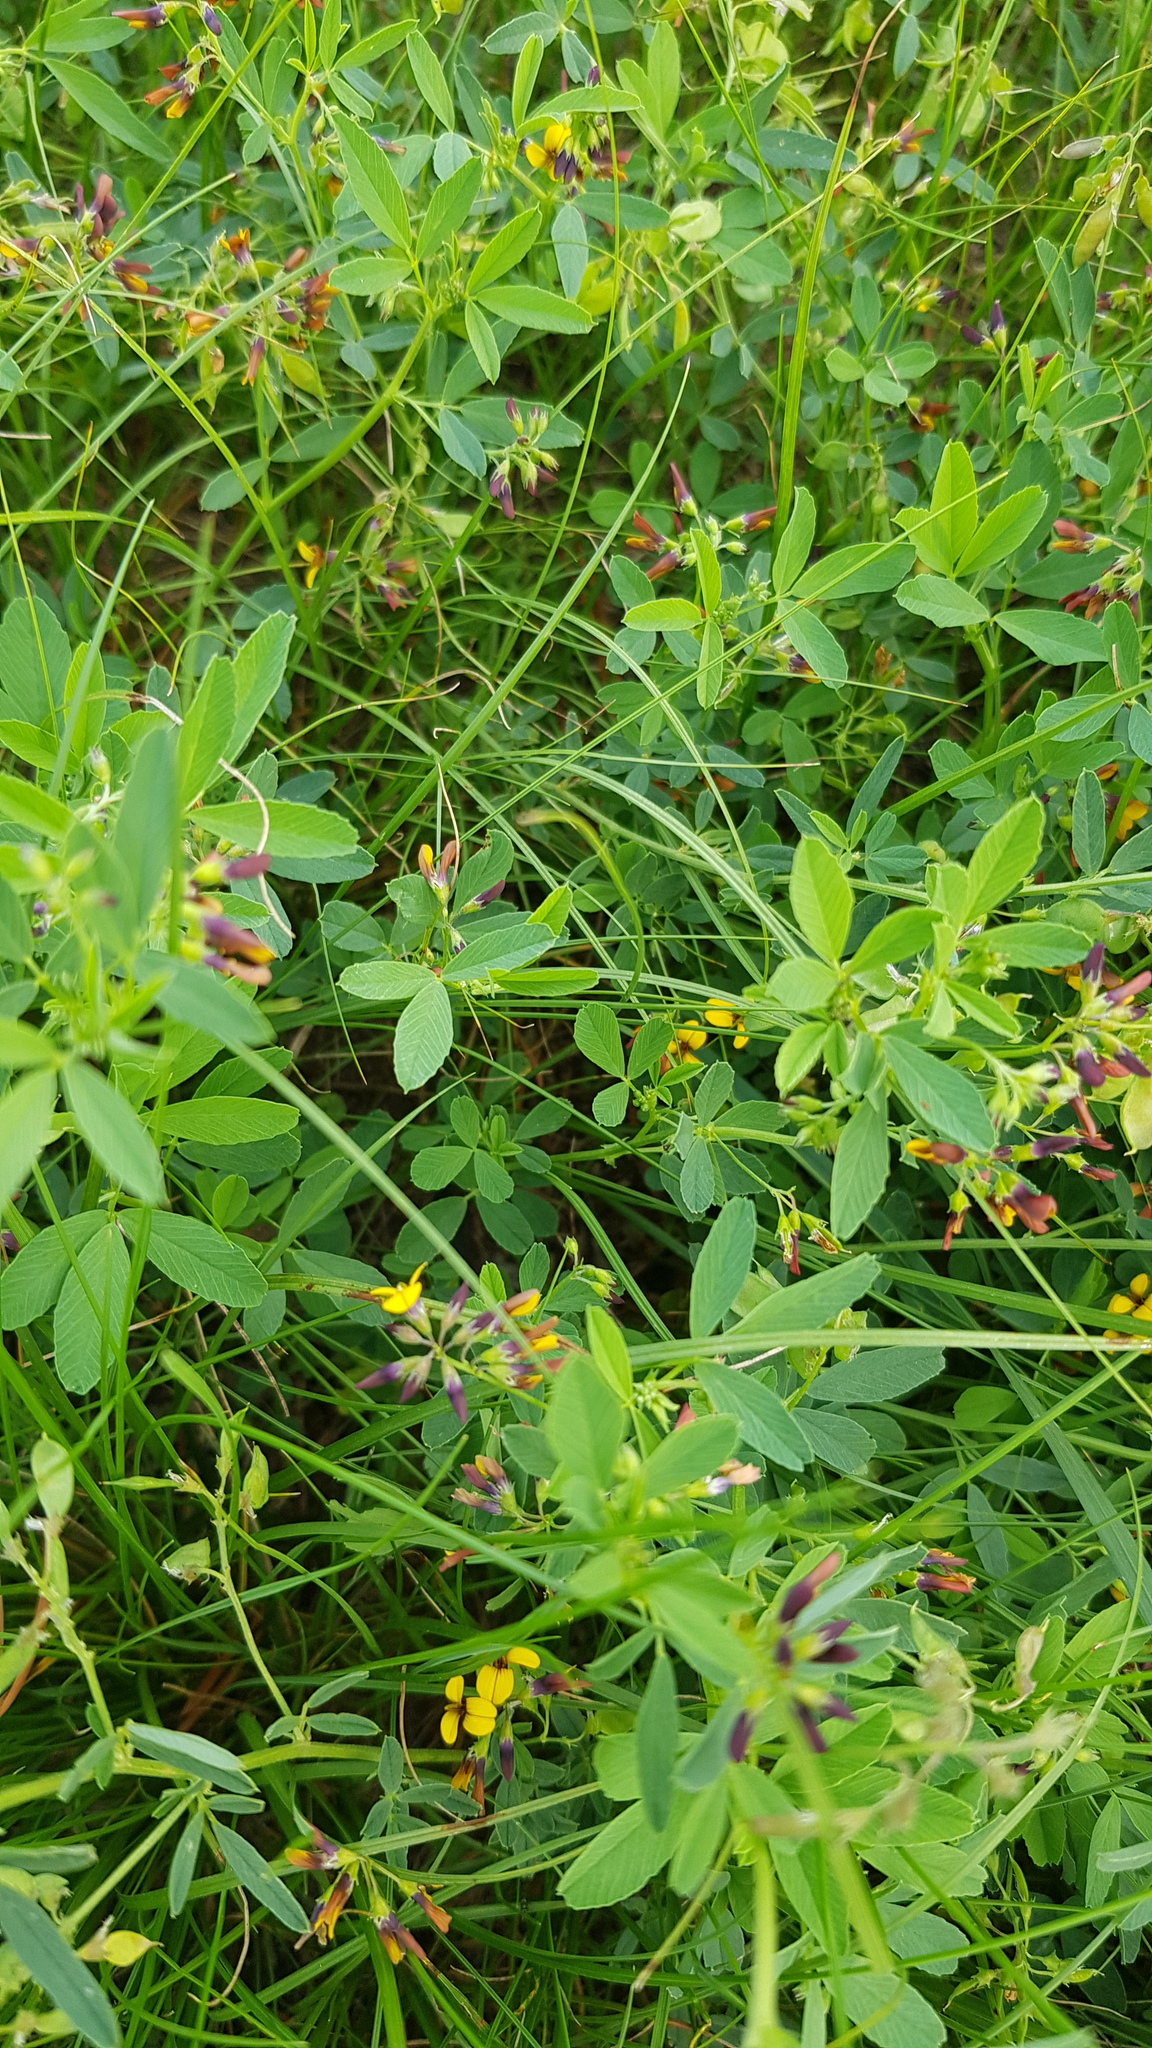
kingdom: Plantae
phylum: Tracheophyta
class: Magnoliopsida
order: Fabales
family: Fabaceae
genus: Medicago
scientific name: Medicago ruthenica
